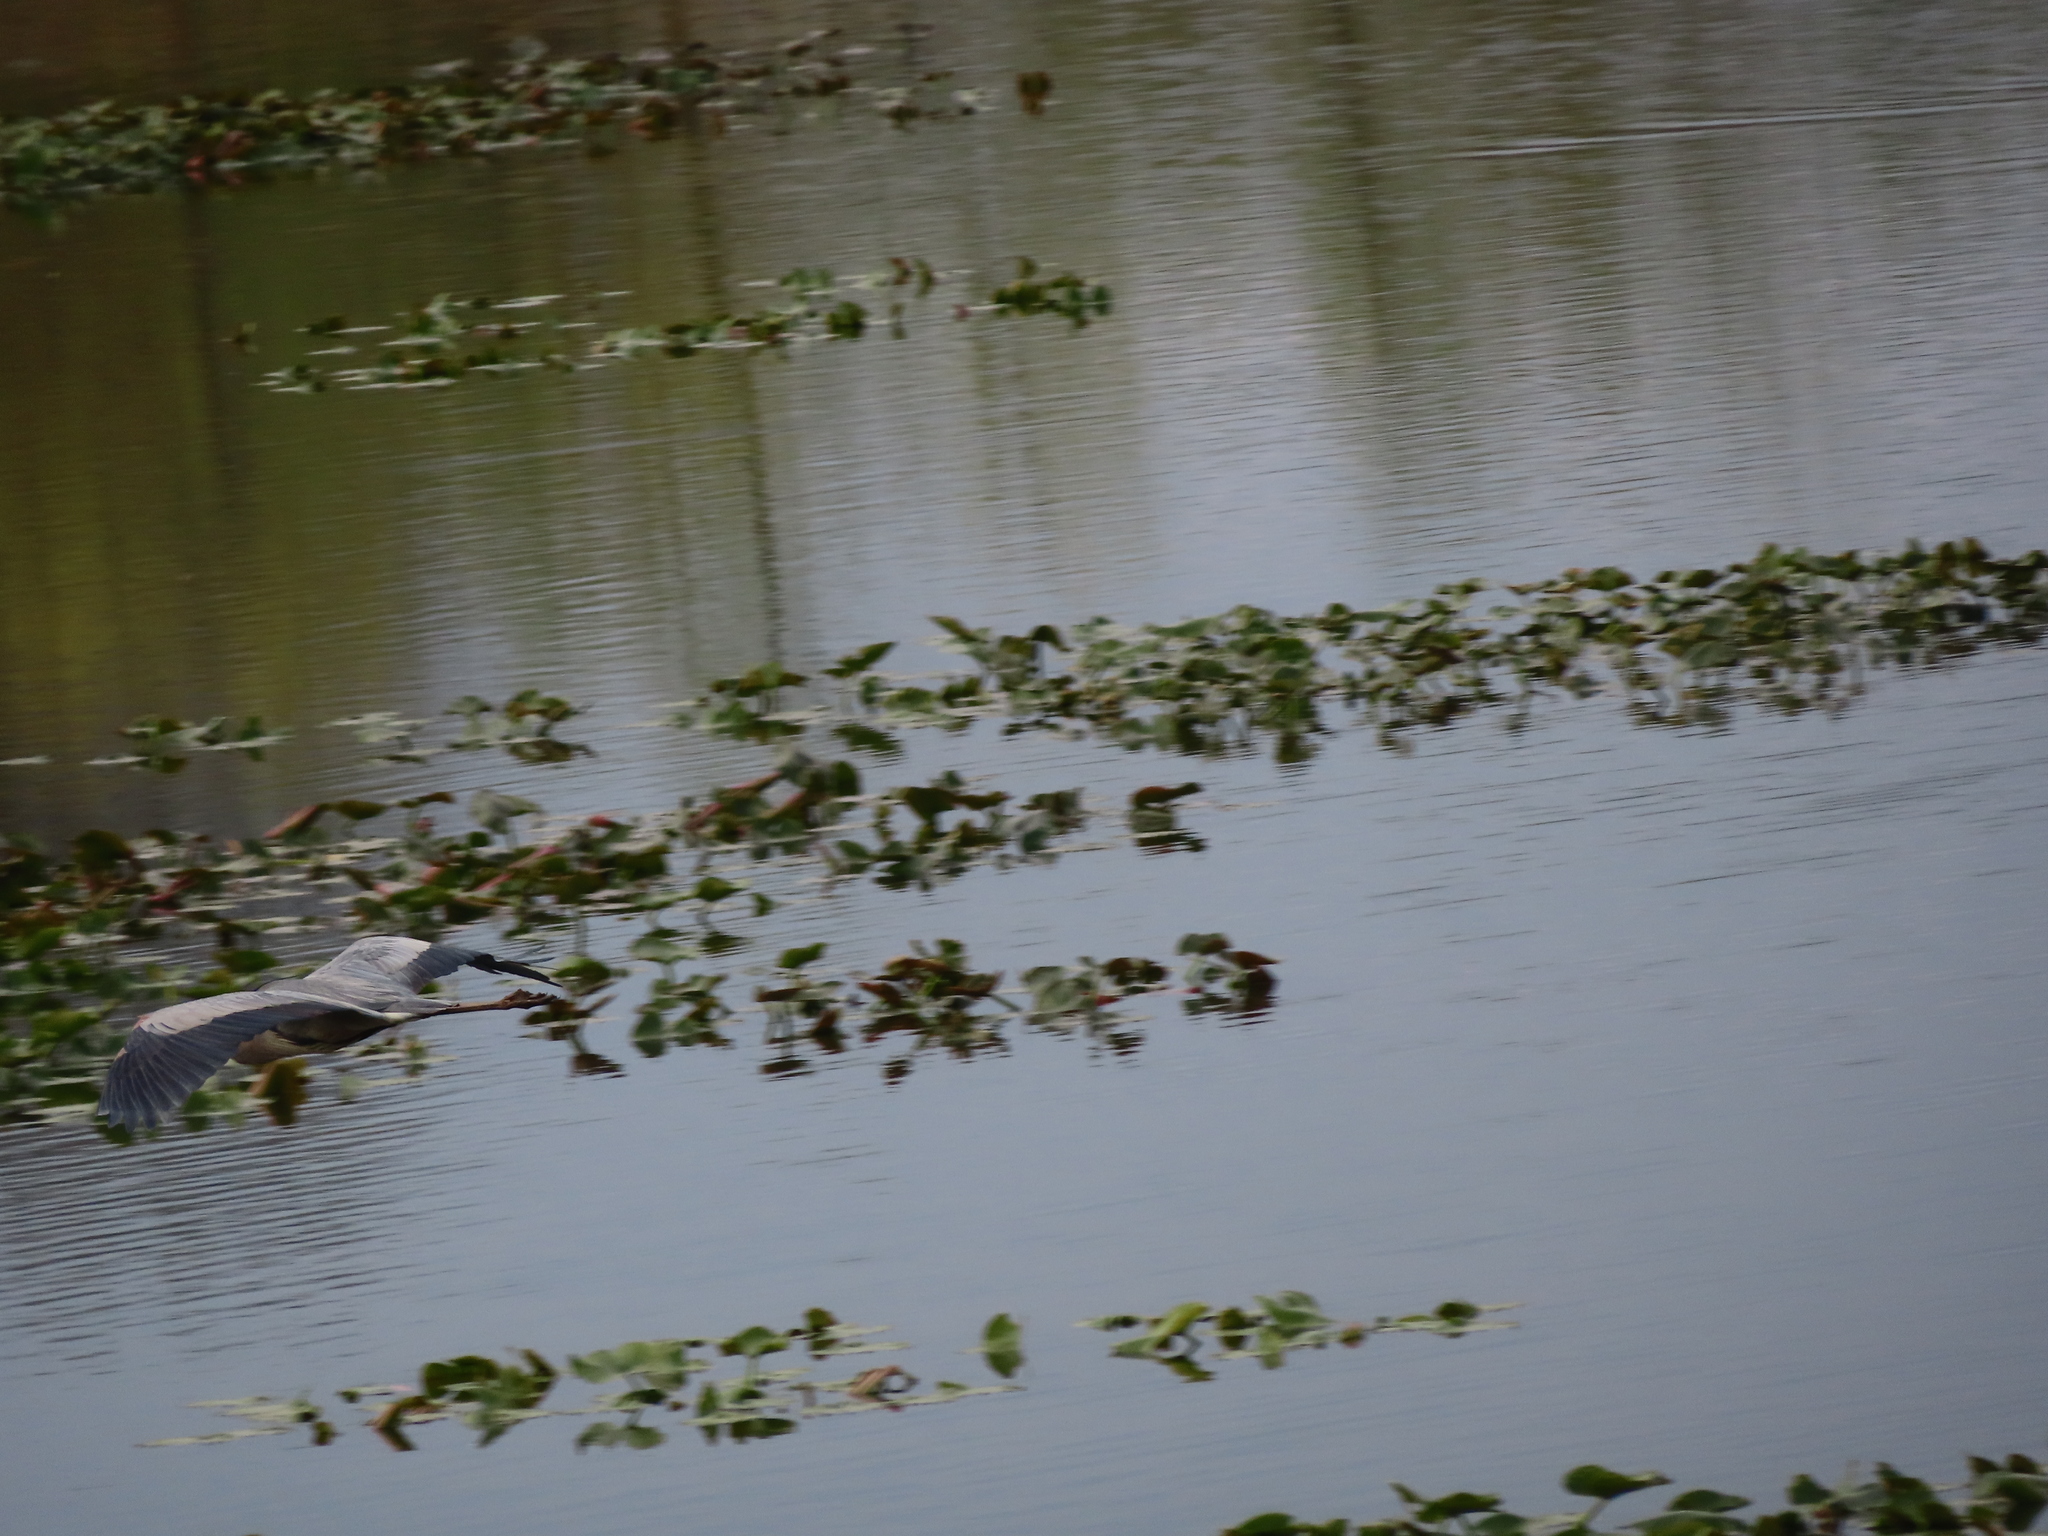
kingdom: Animalia
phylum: Chordata
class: Aves
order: Pelecaniformes
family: Ardeidae
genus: Ardea
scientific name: Ardea herodias
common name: Great blue heron
